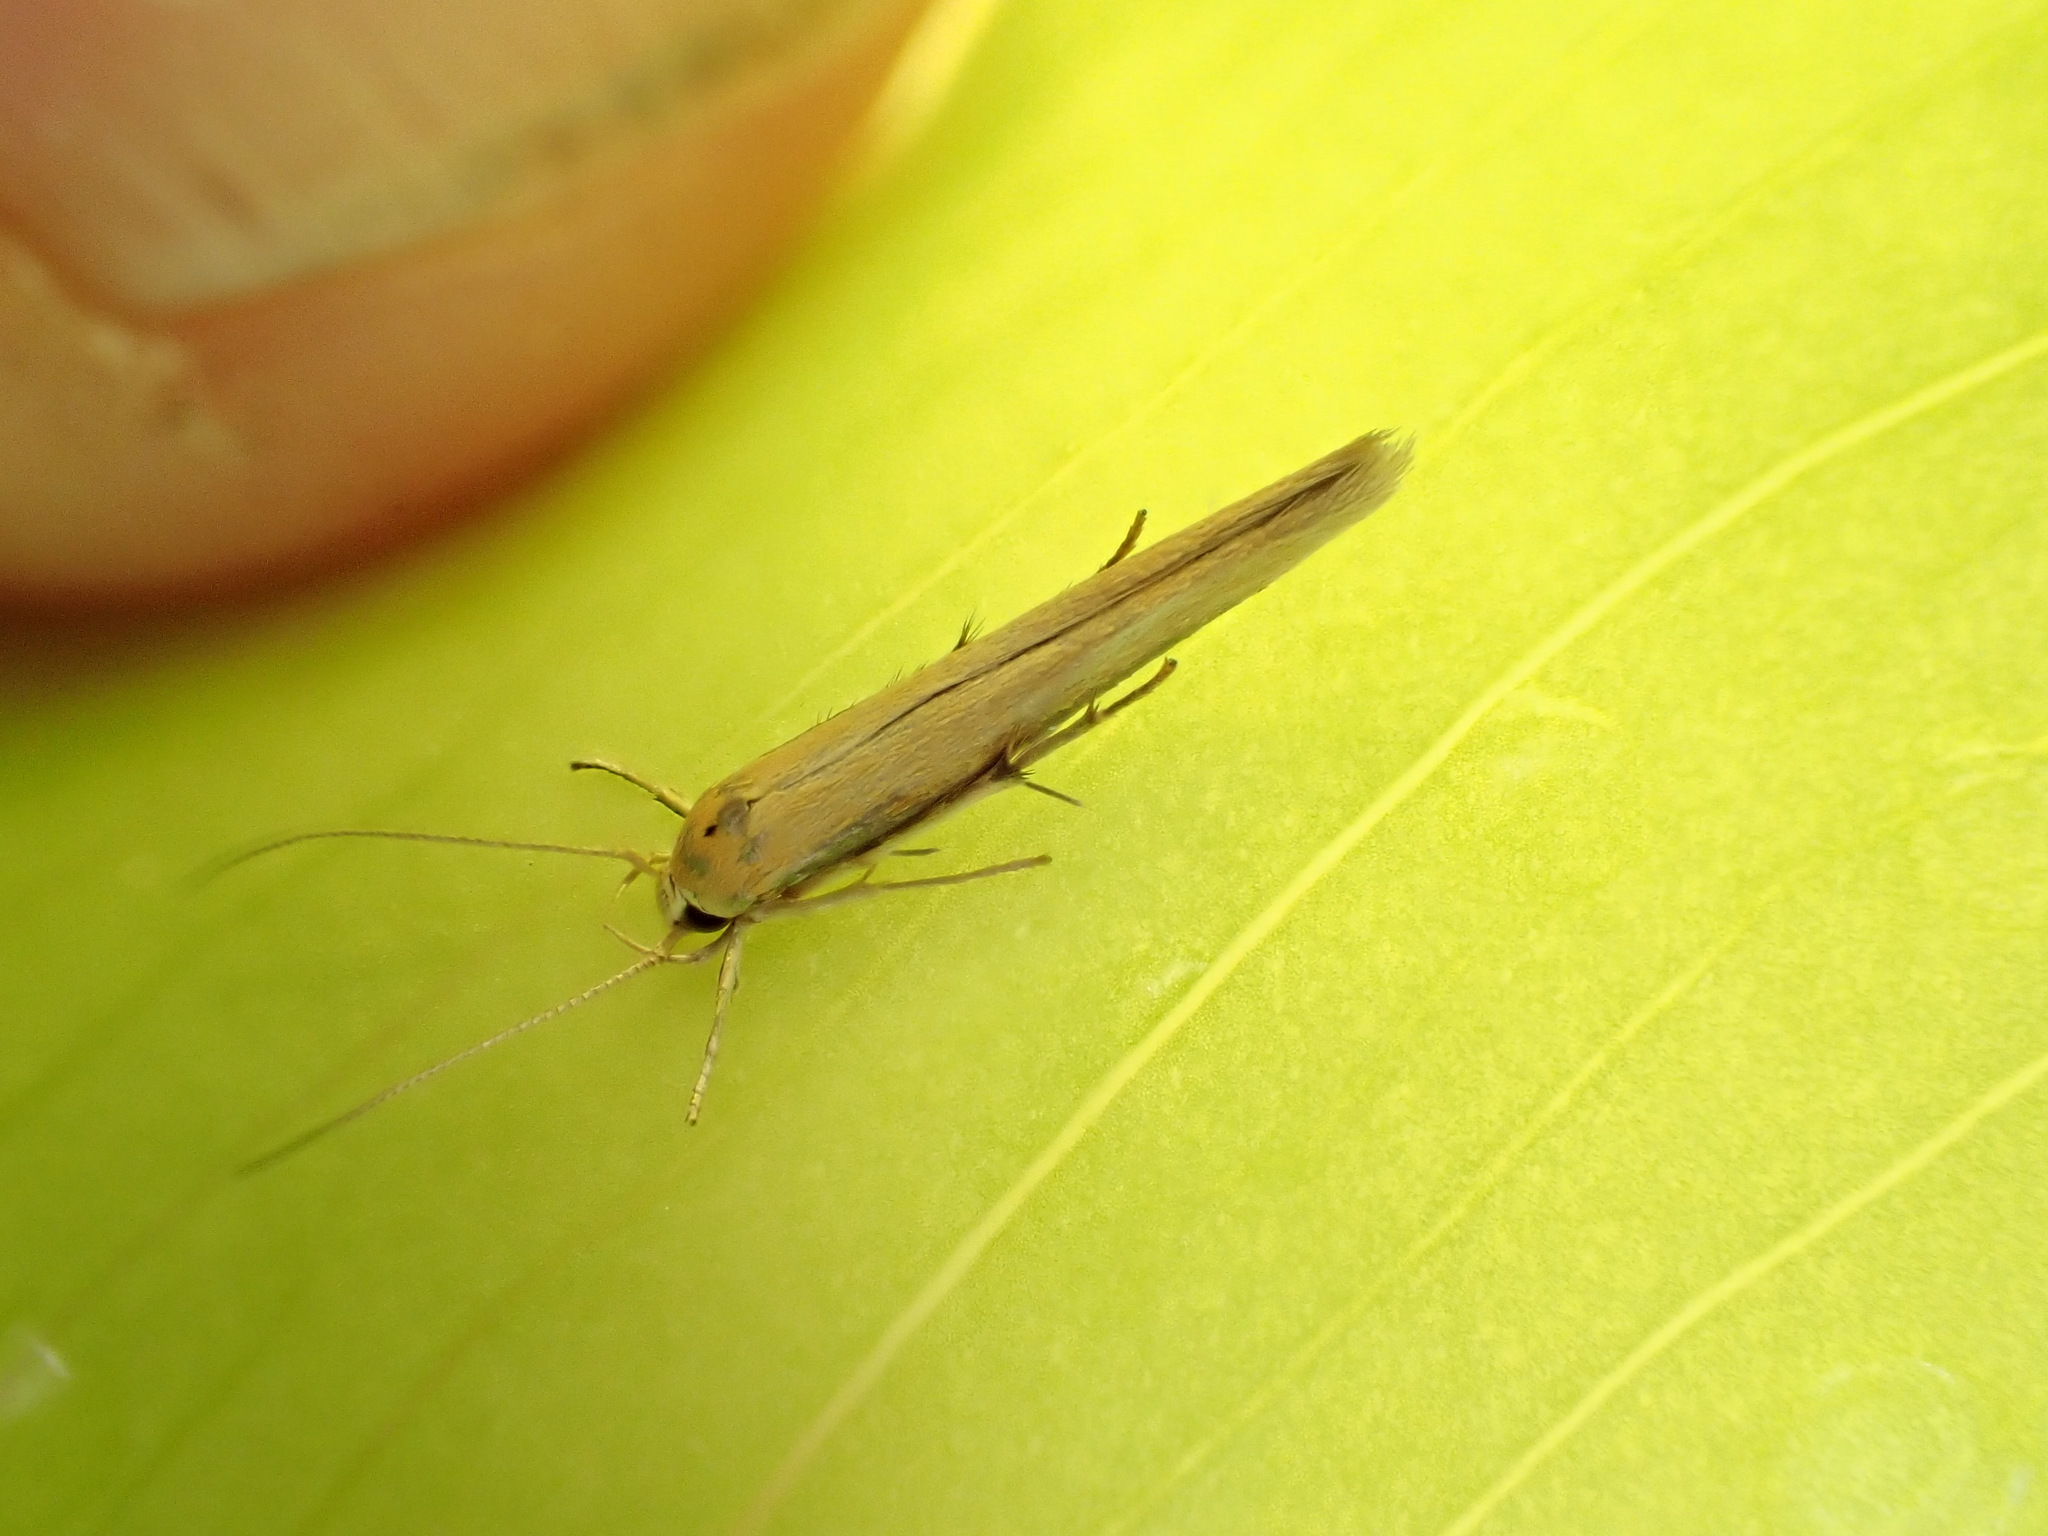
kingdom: Animalia
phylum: Arthropoda
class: Insecta
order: Lepidoptera
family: Stathmopodidae
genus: Stathmopoda
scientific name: Stathmopoda skelloni
